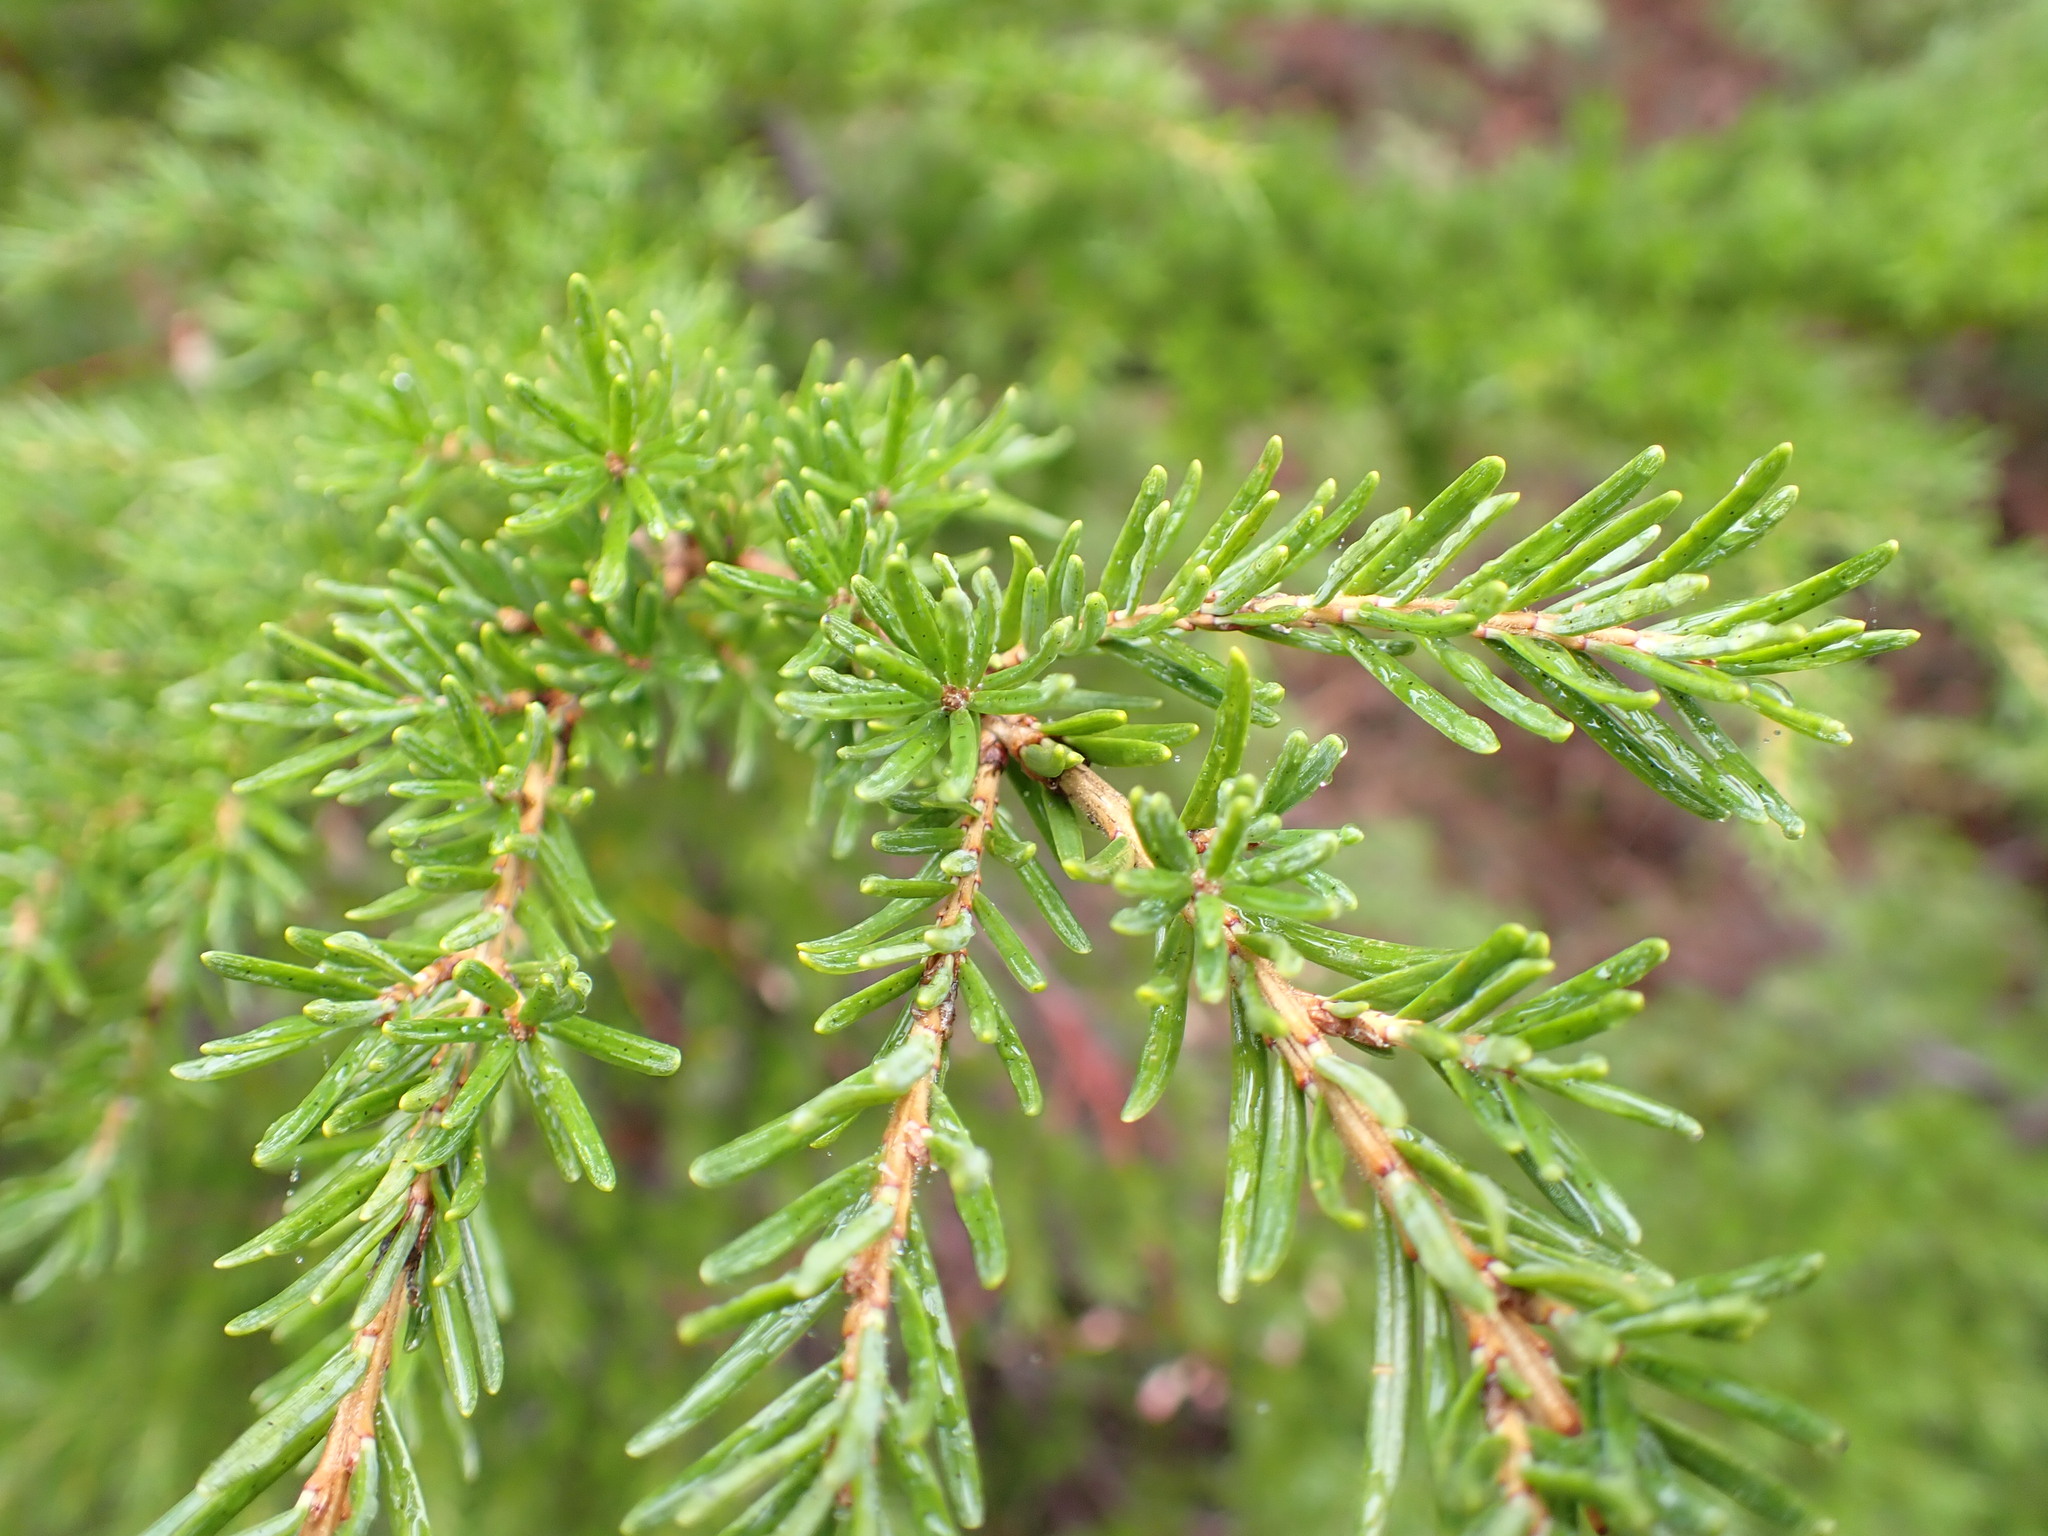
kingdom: Plantae
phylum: Tracheophyta
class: Pinopsida
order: Pinales
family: Pinaceae
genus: Tsuga
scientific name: Tsuga mertensiana
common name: Mountain hemlock
